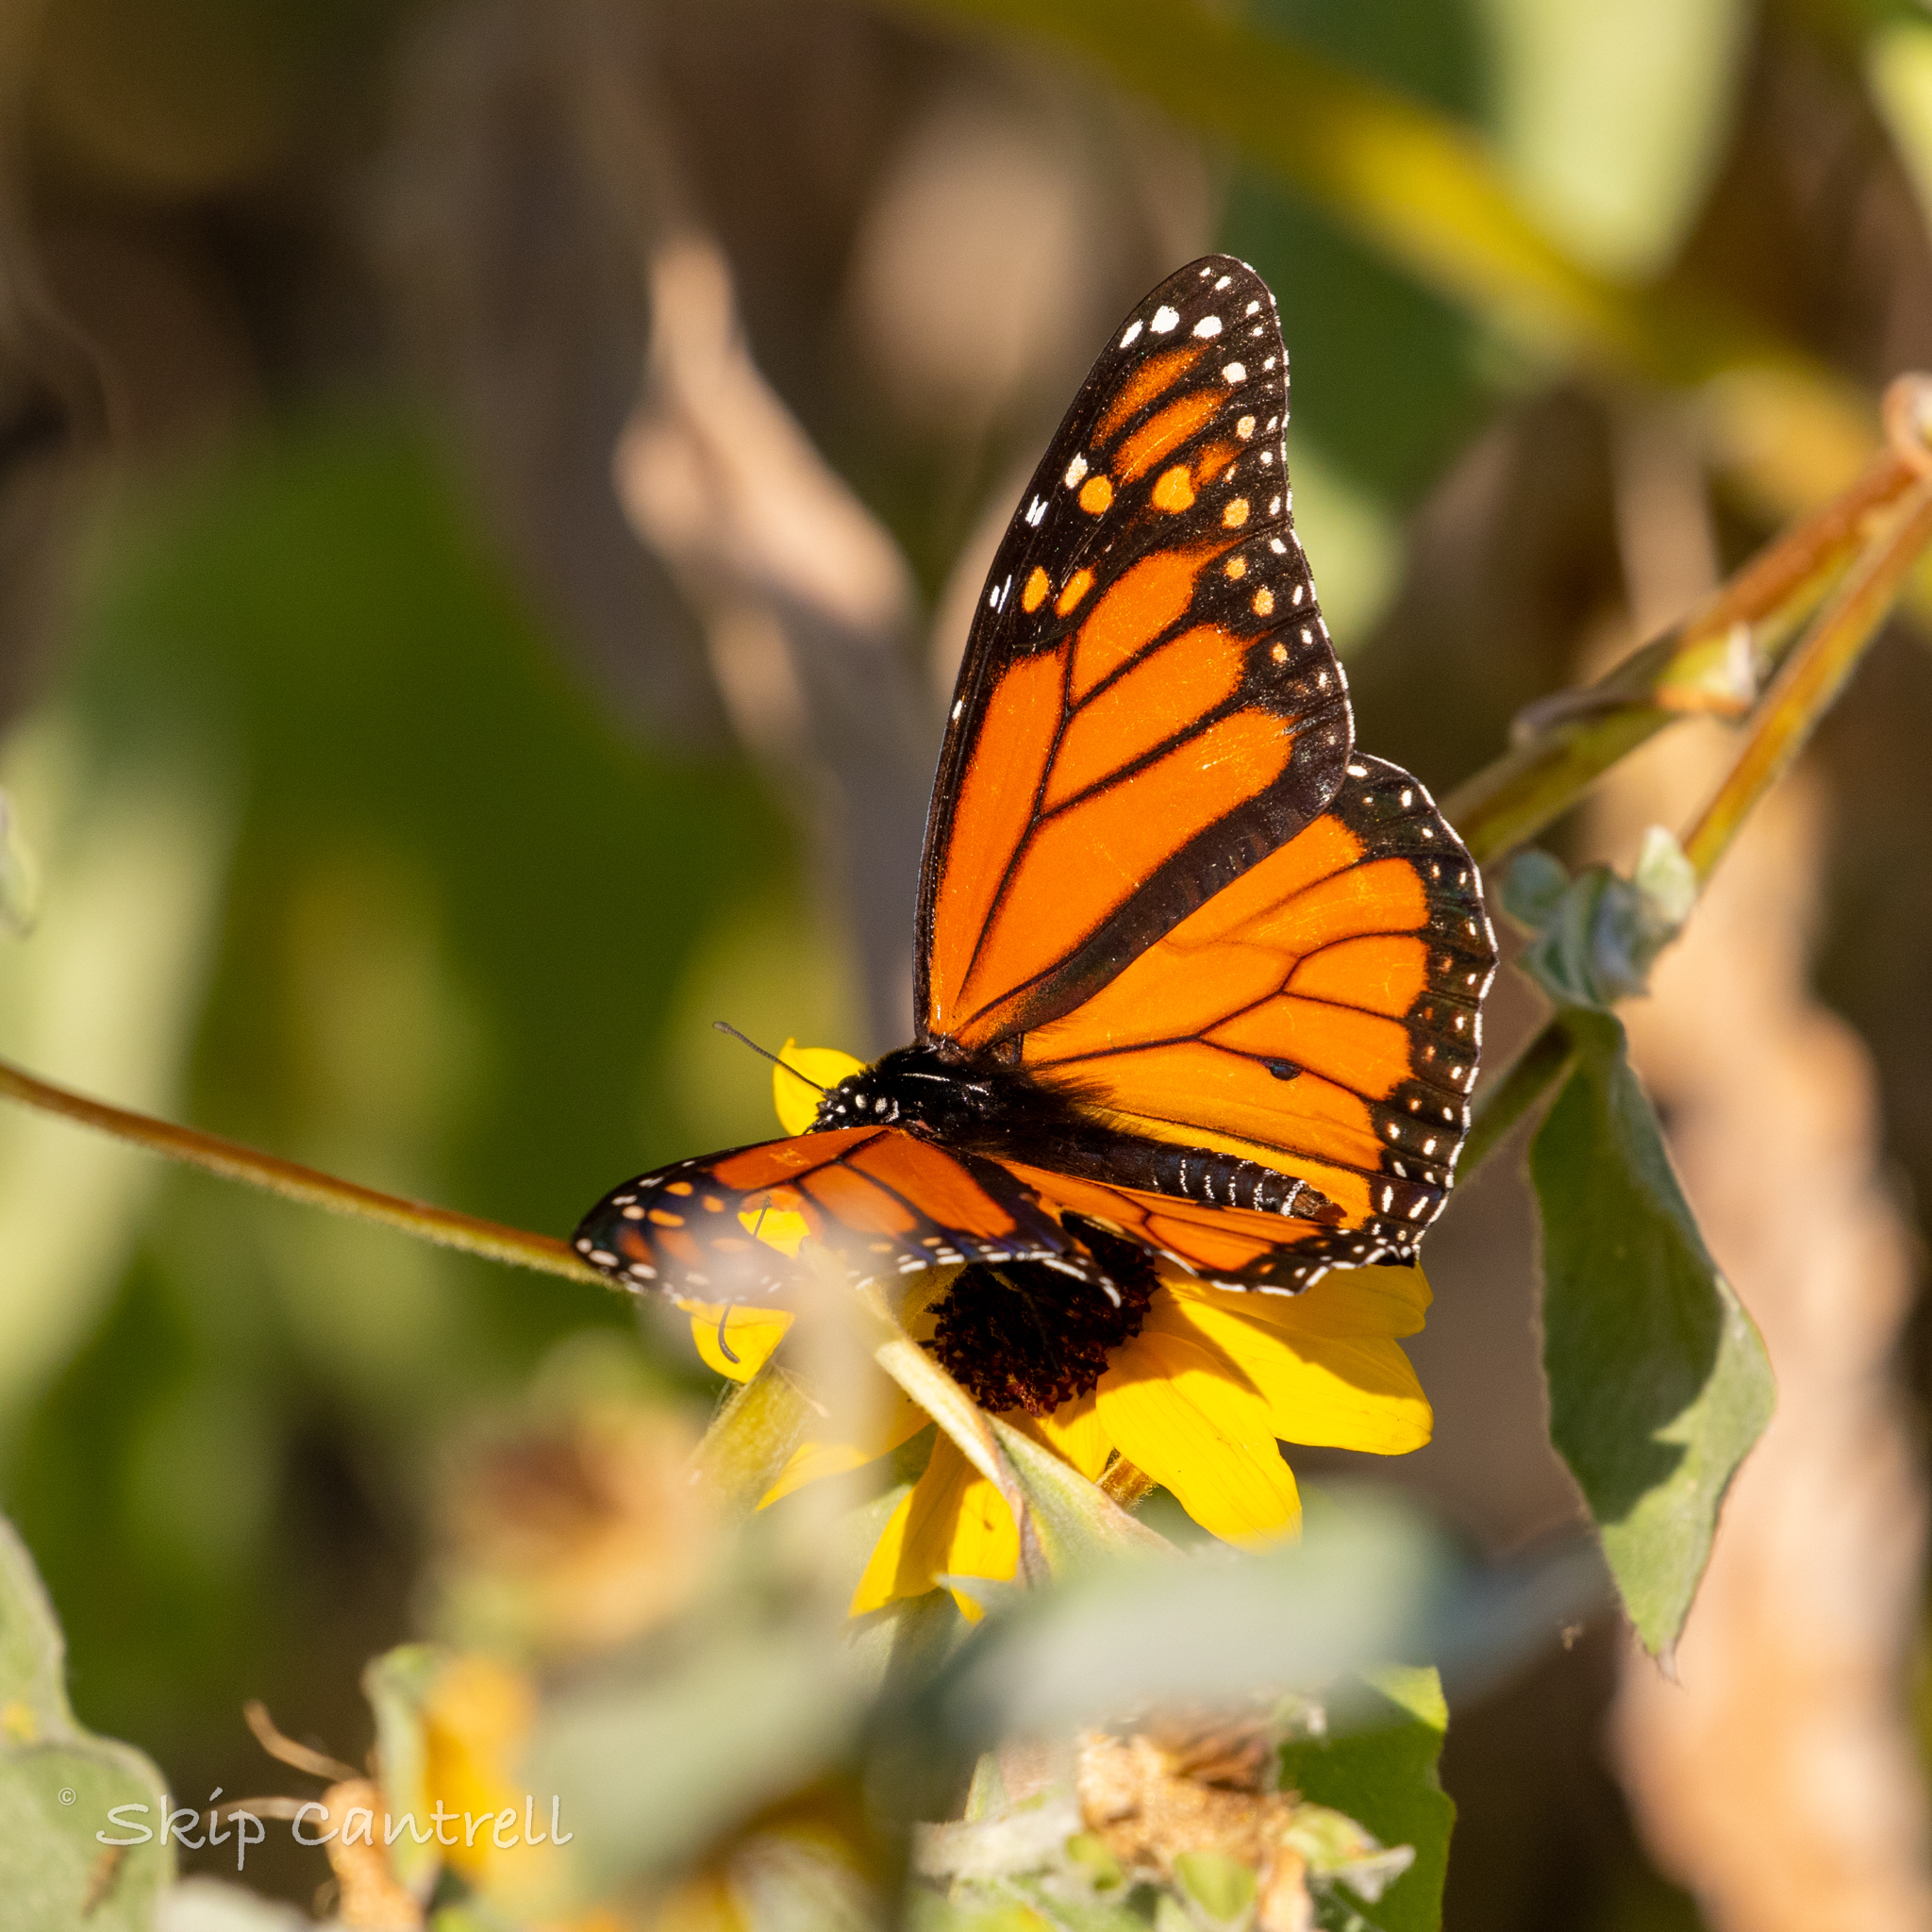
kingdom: Animalia
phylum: Arthropoda
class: Insecta
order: Lepidoptera
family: Nymphalidae
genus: Danaus
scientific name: Danaus plexippus
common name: Monarch
